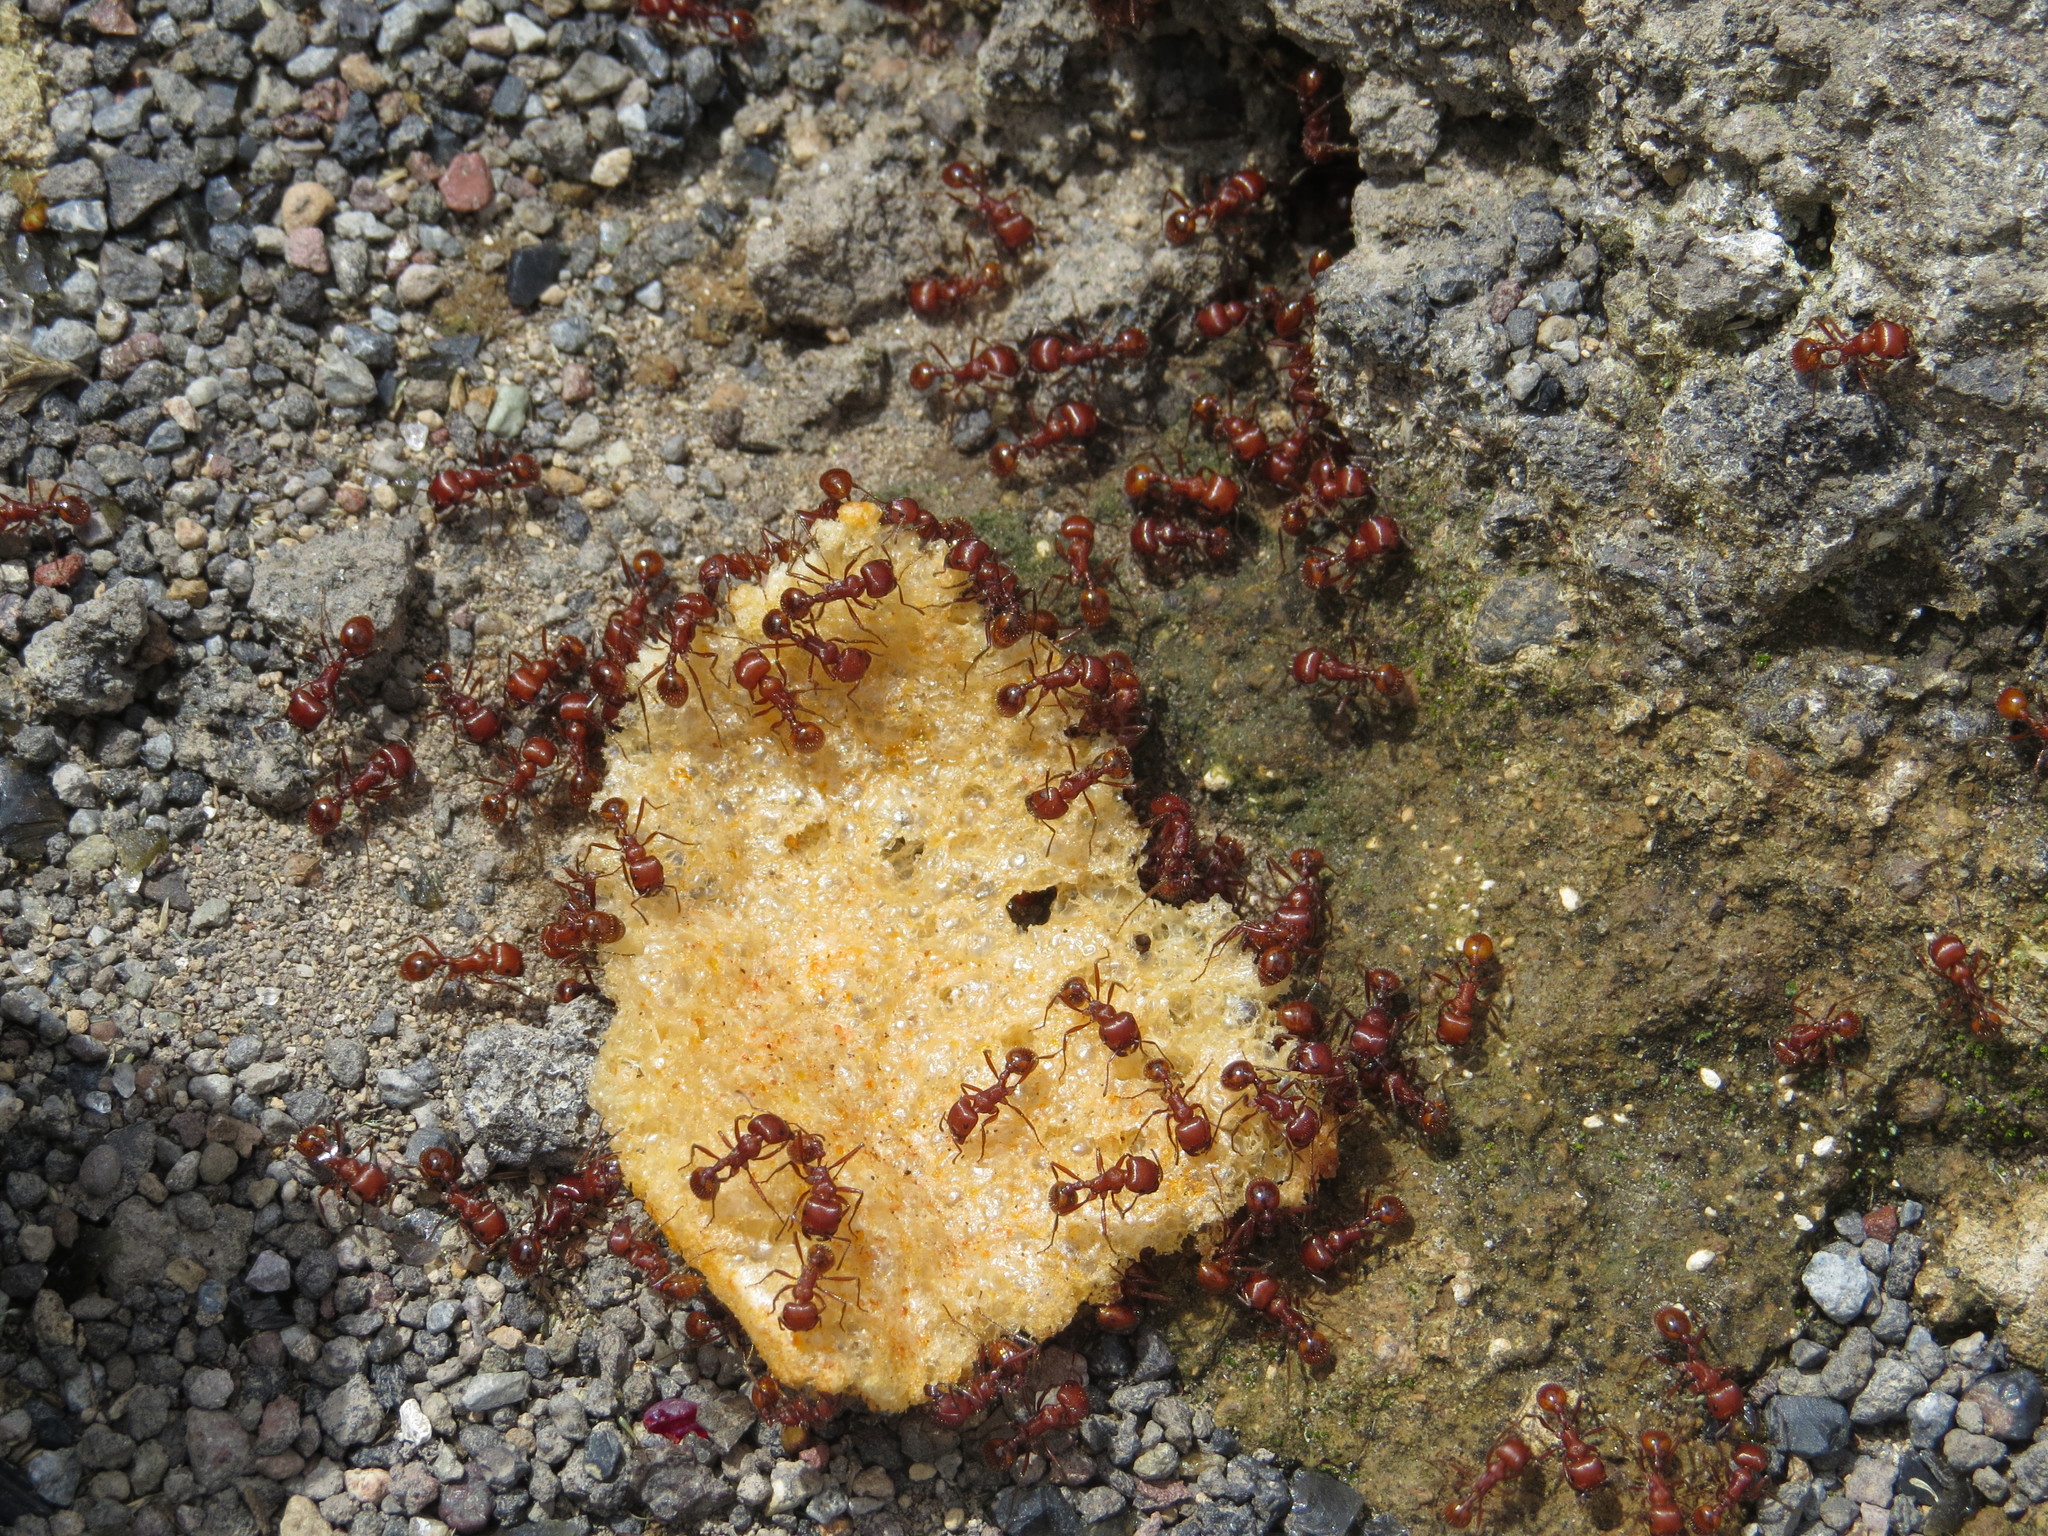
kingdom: Animalia
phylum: Arthropoda
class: Insecta
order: Hymenoptera
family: Formicidae
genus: Pogonomyrmex
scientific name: Pogonomyrmex barbatus
